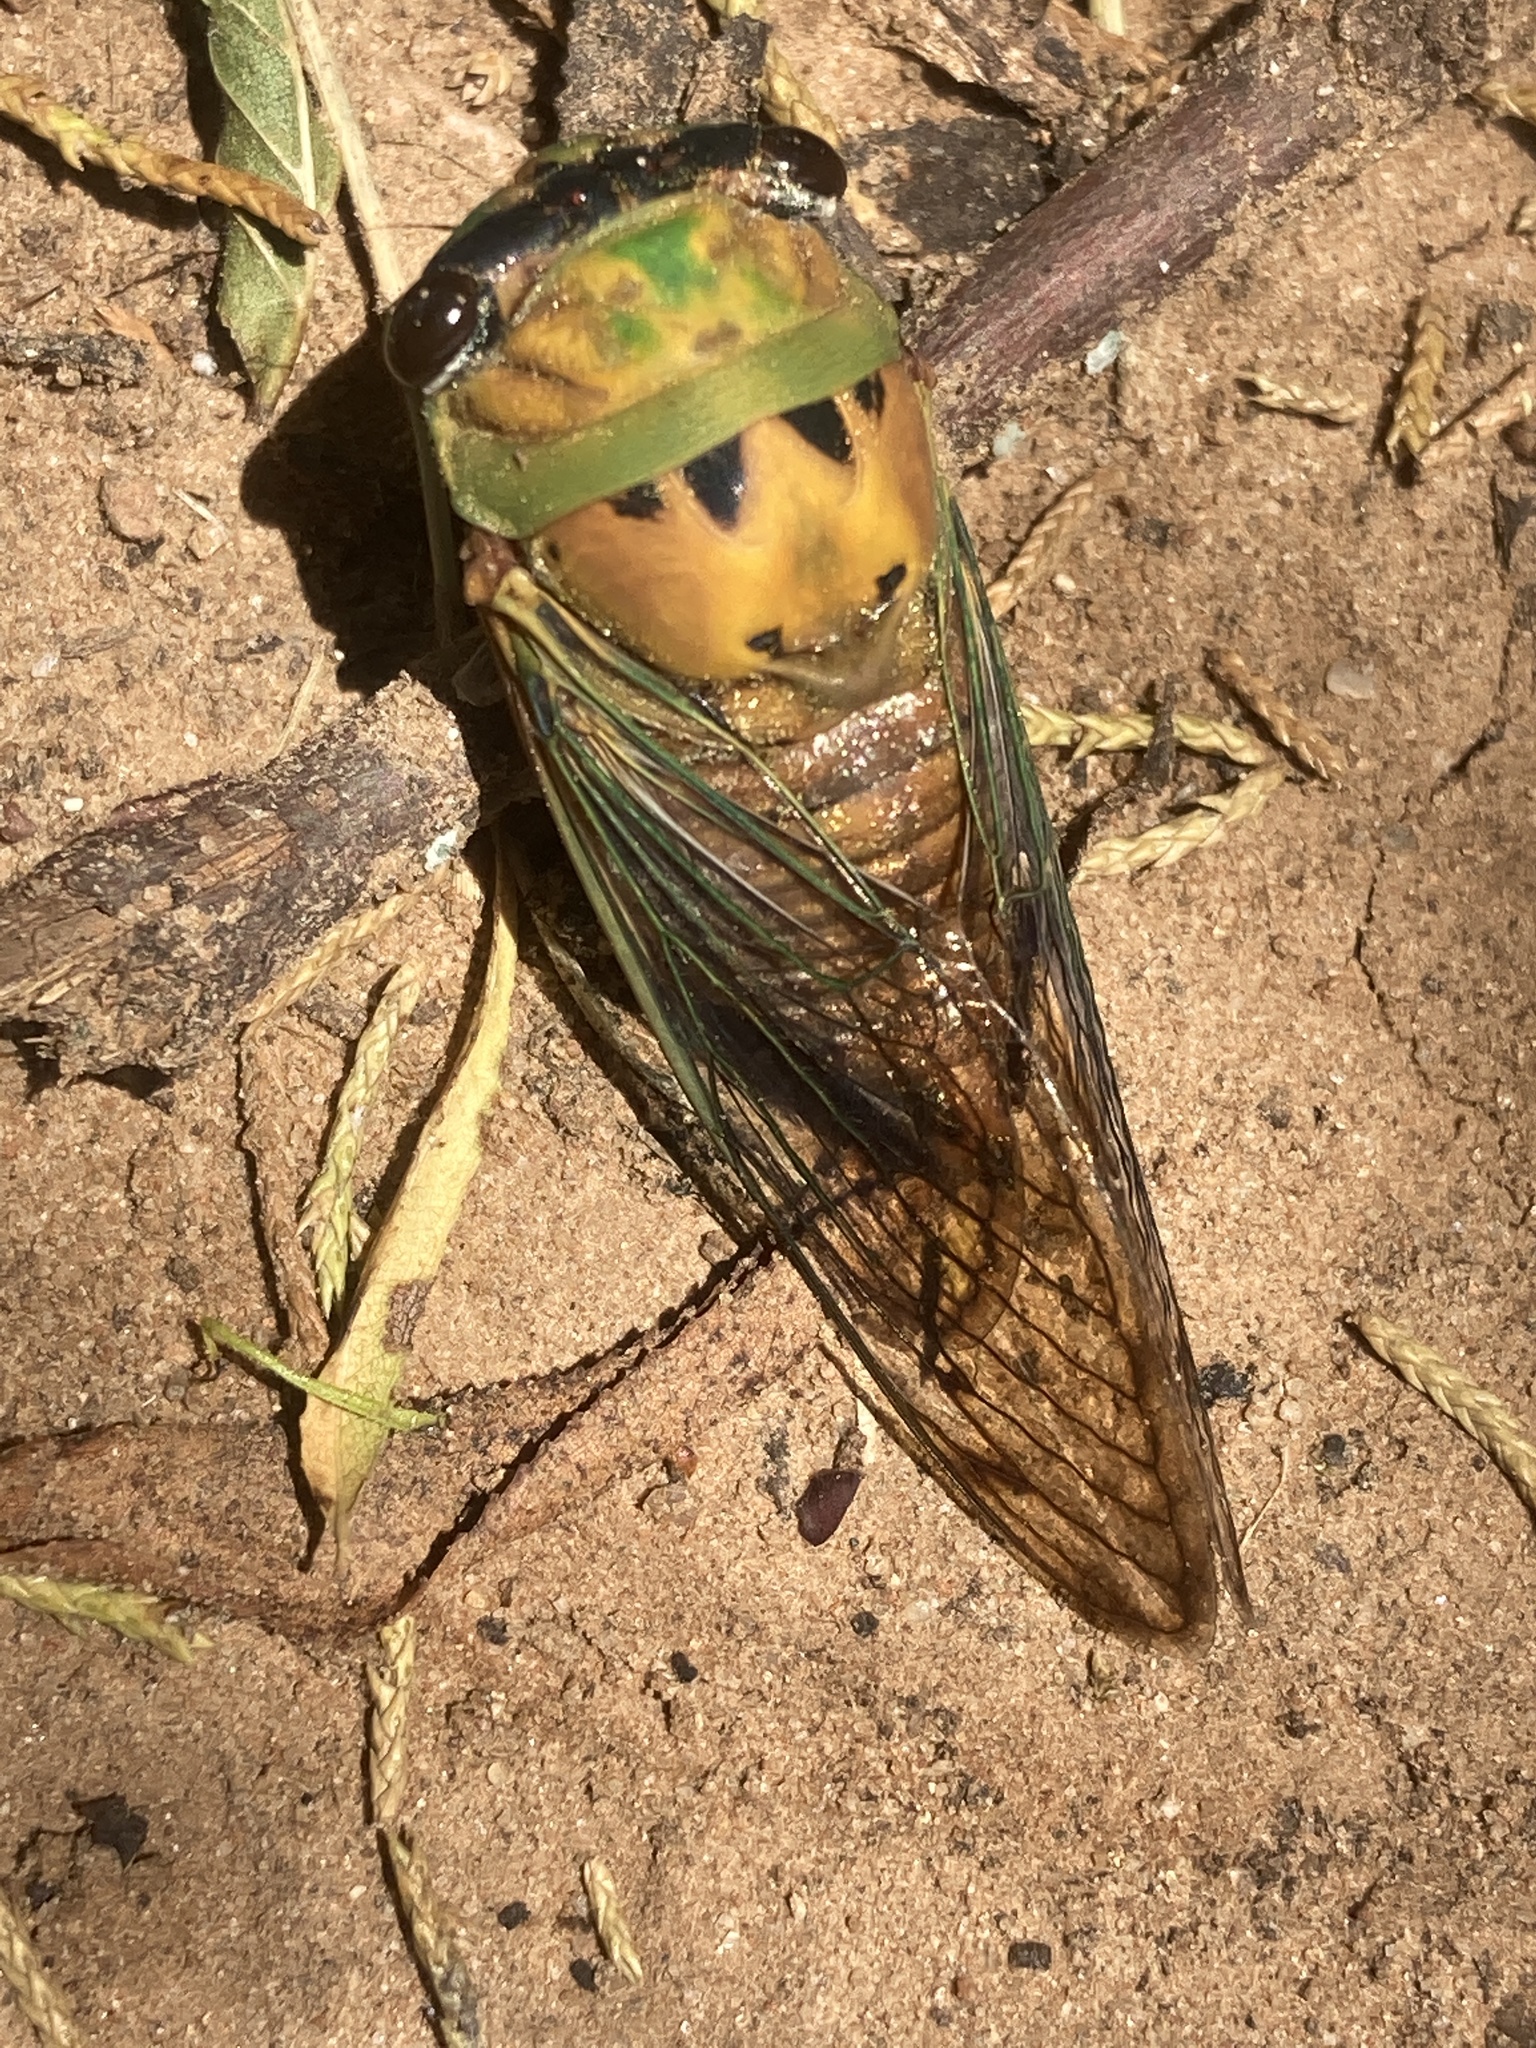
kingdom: Animalia
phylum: Arthropoda
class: Insecta
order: Hemiptera
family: Cicadidae
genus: Neotibicen
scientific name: Neotibicen superbus
